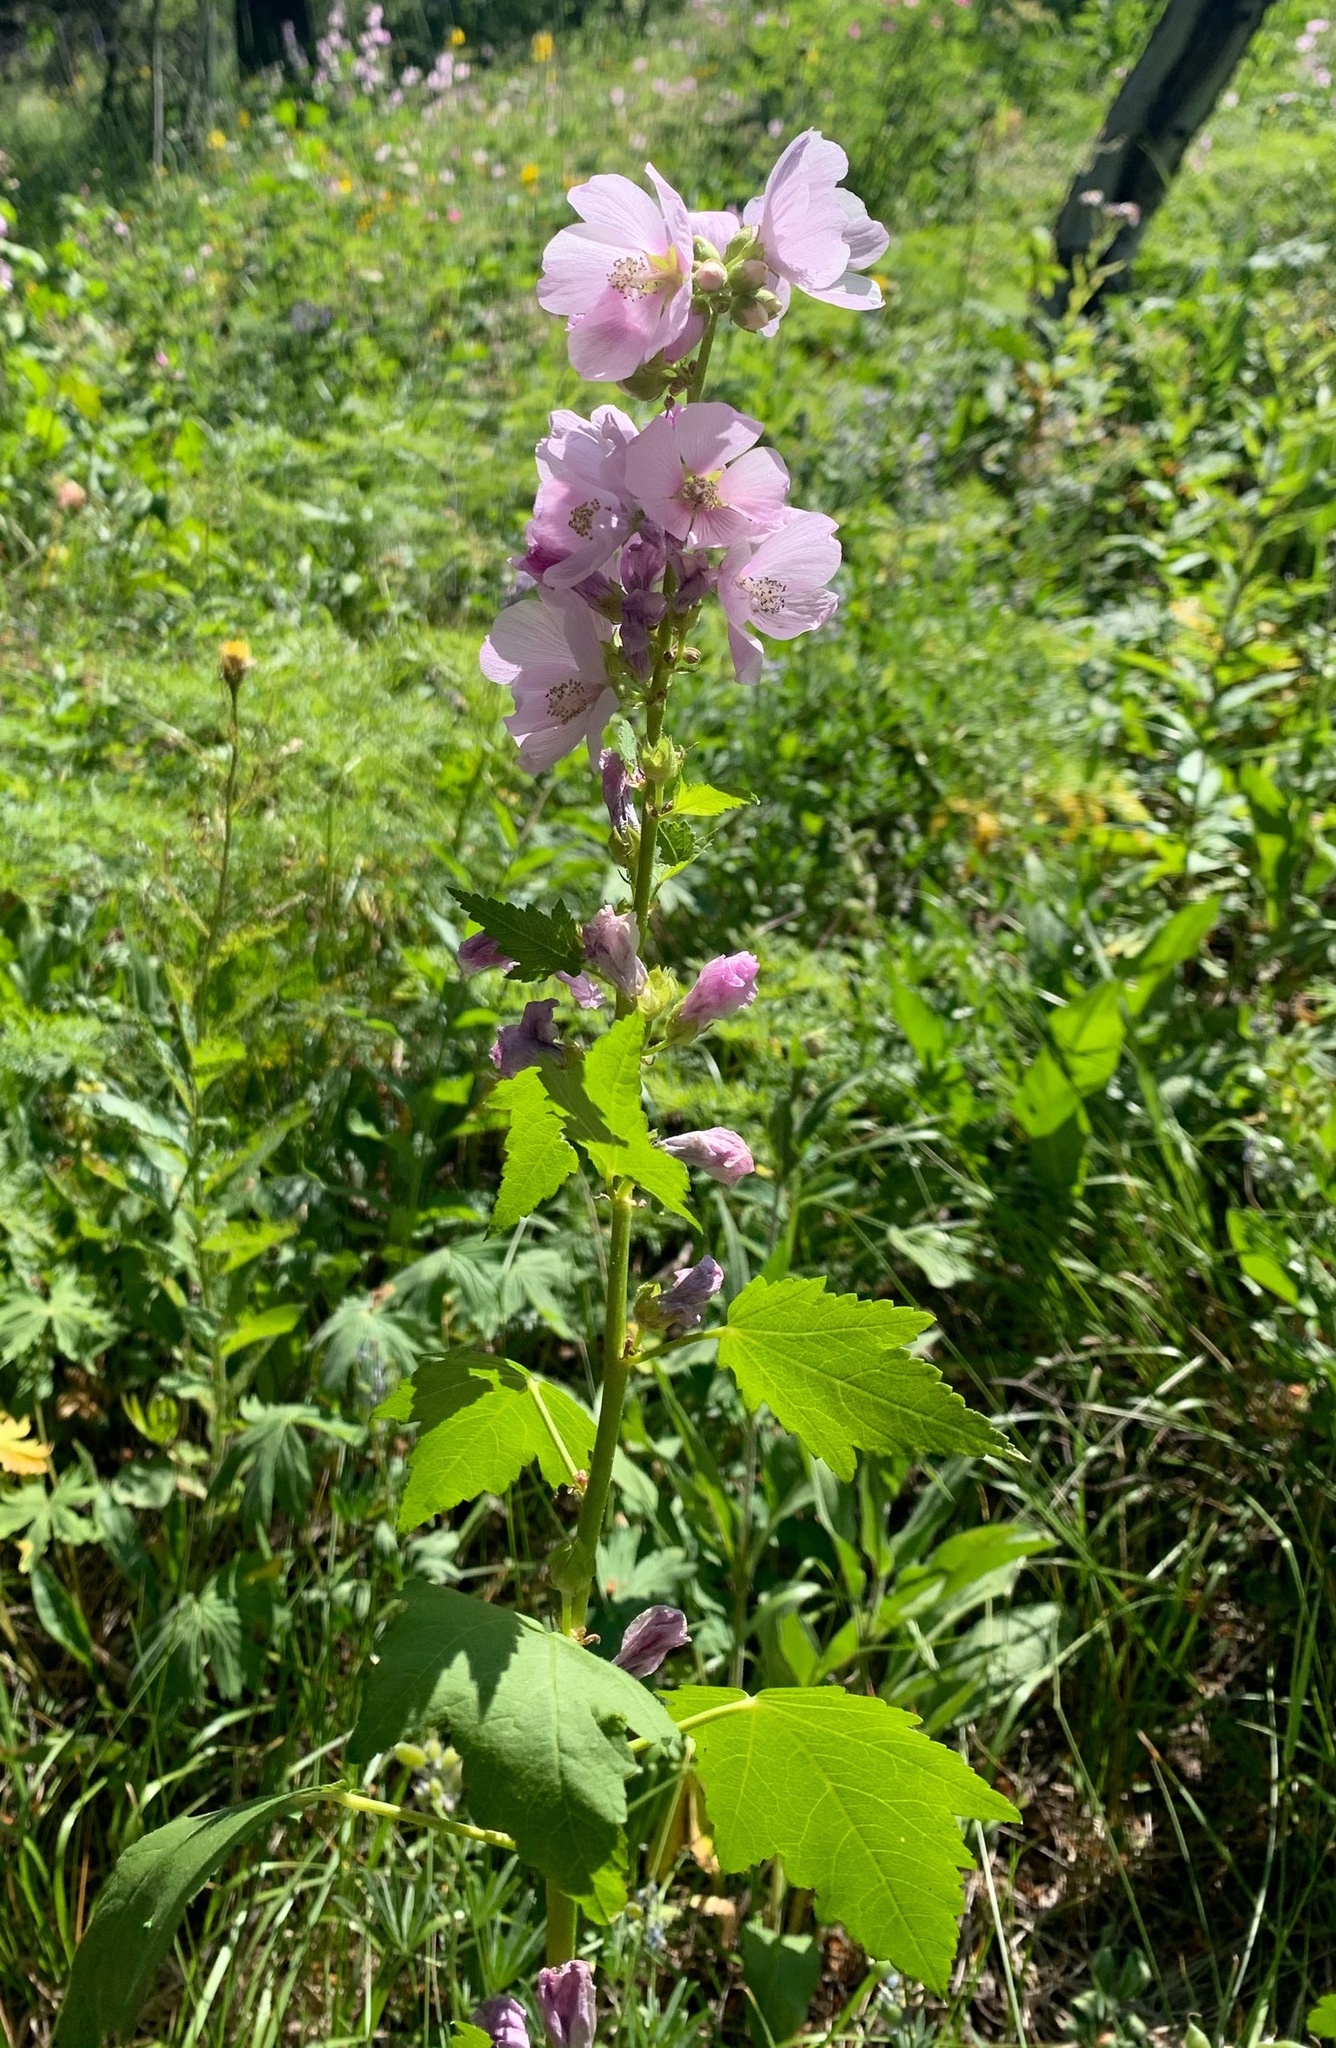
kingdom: Plantae
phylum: Tracheophyta
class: Magnoliopsida
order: Malvales
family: Malvaceae
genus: Iliamna
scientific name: Iliamna rivularis
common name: Wild hollyhock
